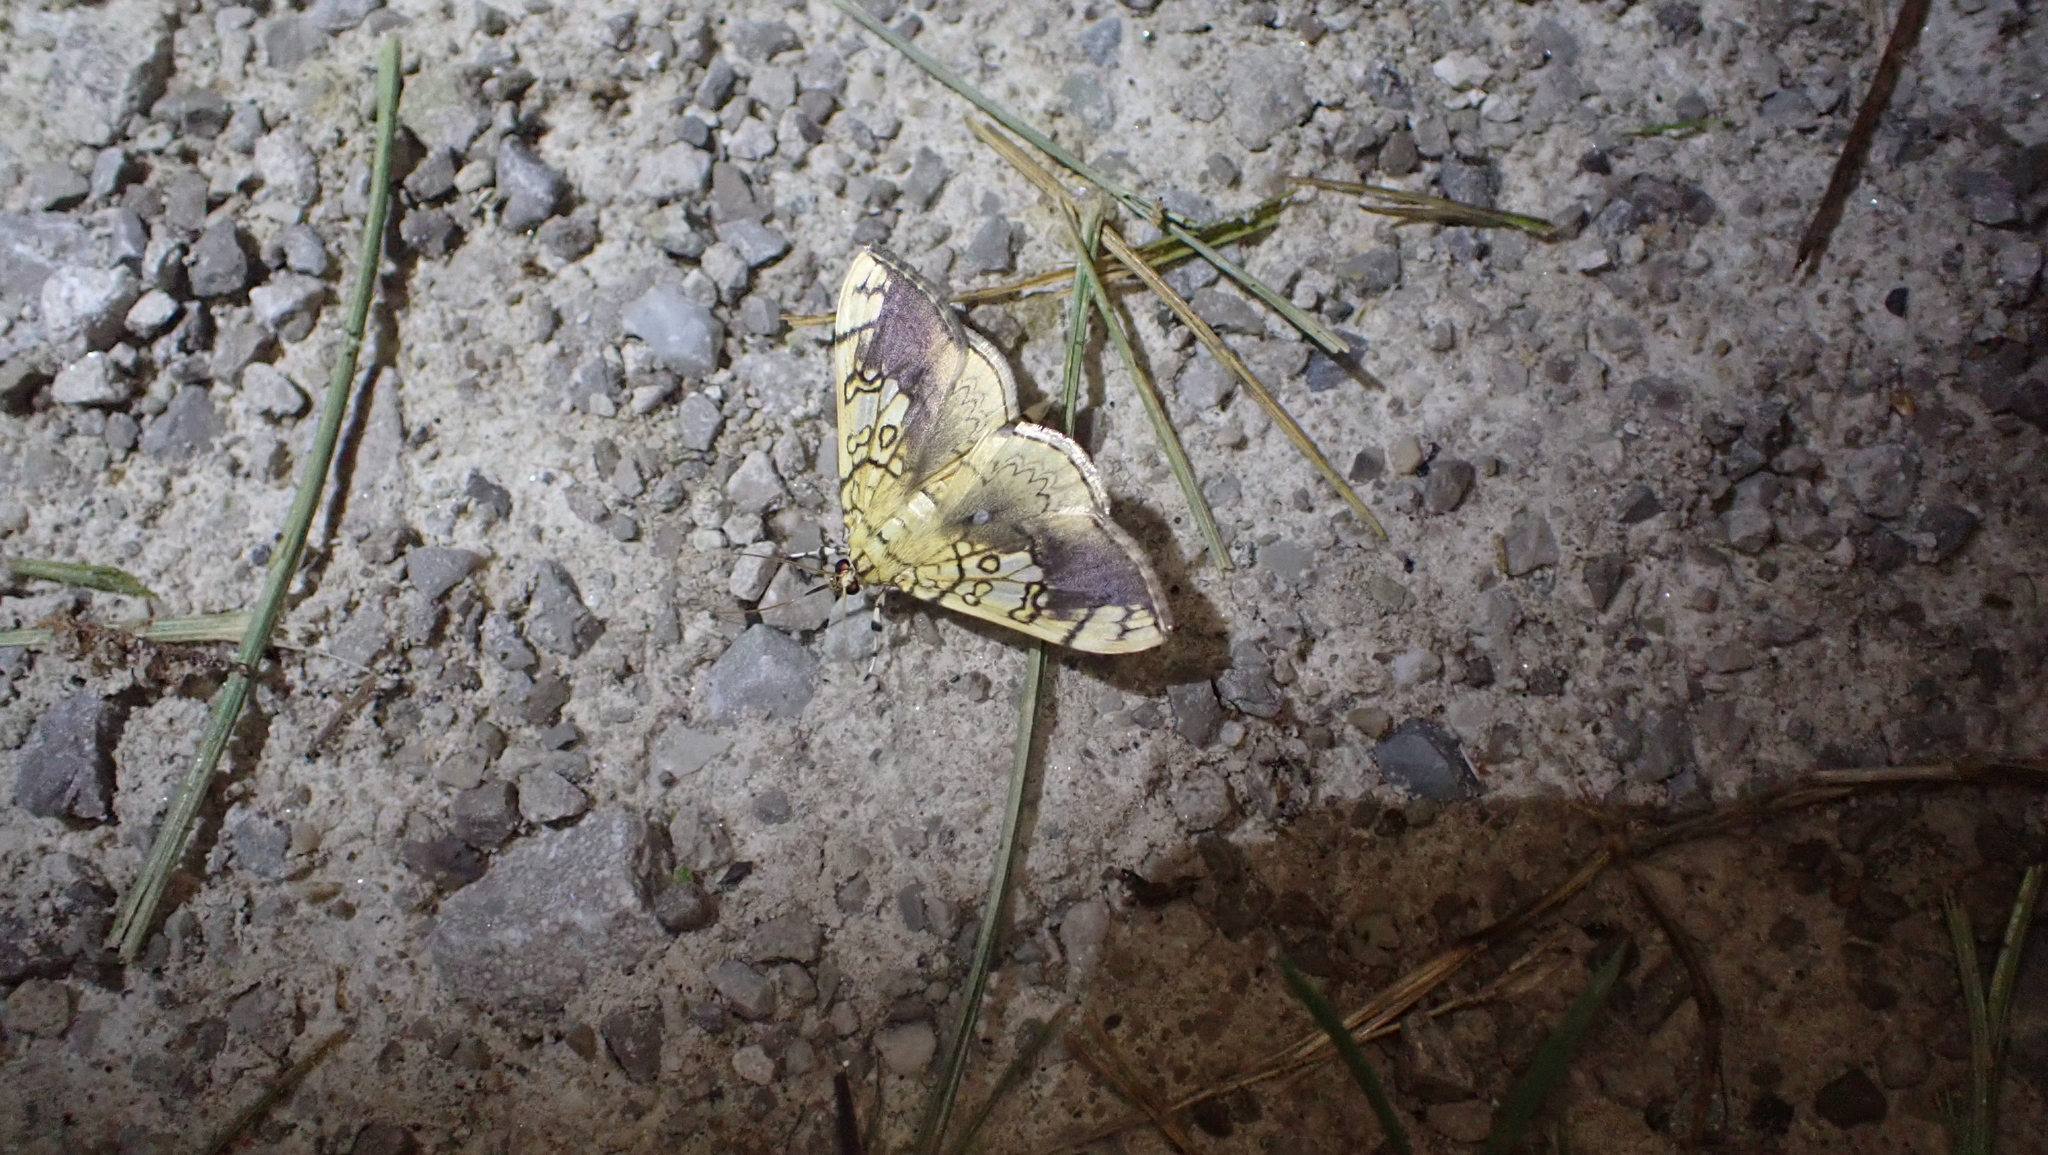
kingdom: Animalia
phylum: Arthropoda
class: Insecta
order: Lepidoptera
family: Crambidae
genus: Pantographa
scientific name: Pantographa limata
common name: Basswood leafroller moth
